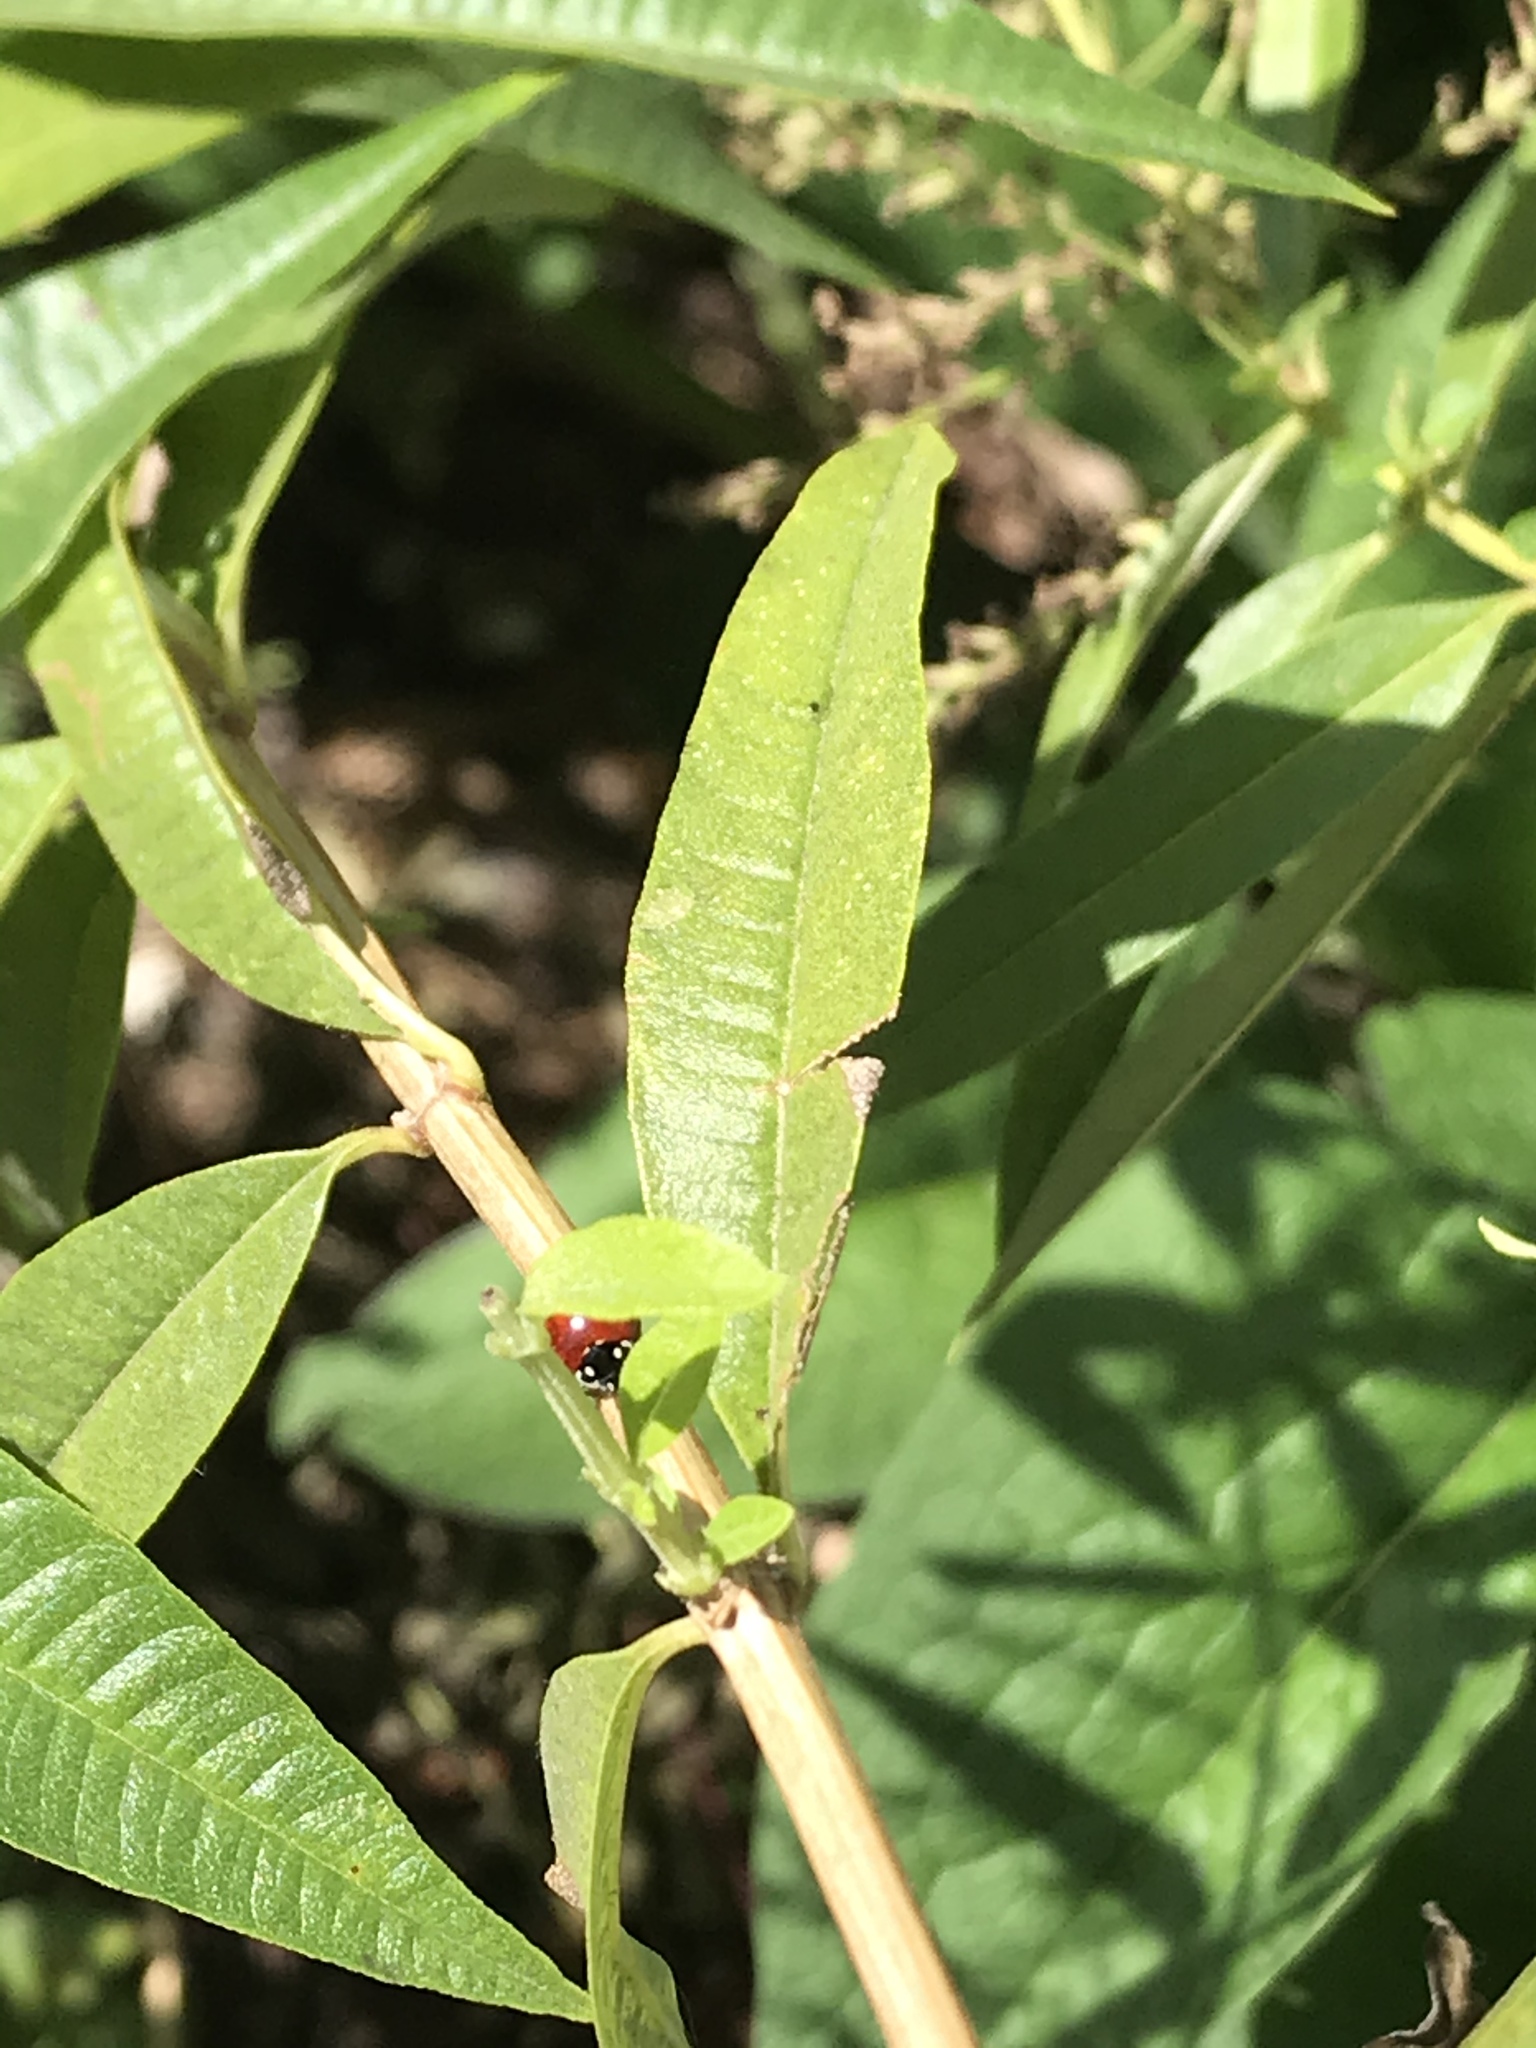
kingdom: Animalia
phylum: Arthropoda
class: Insecta
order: Coleoptera
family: Coccinellidae
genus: Cycloneda
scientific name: Cycloneda sanguinea
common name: Ladybird beetle
